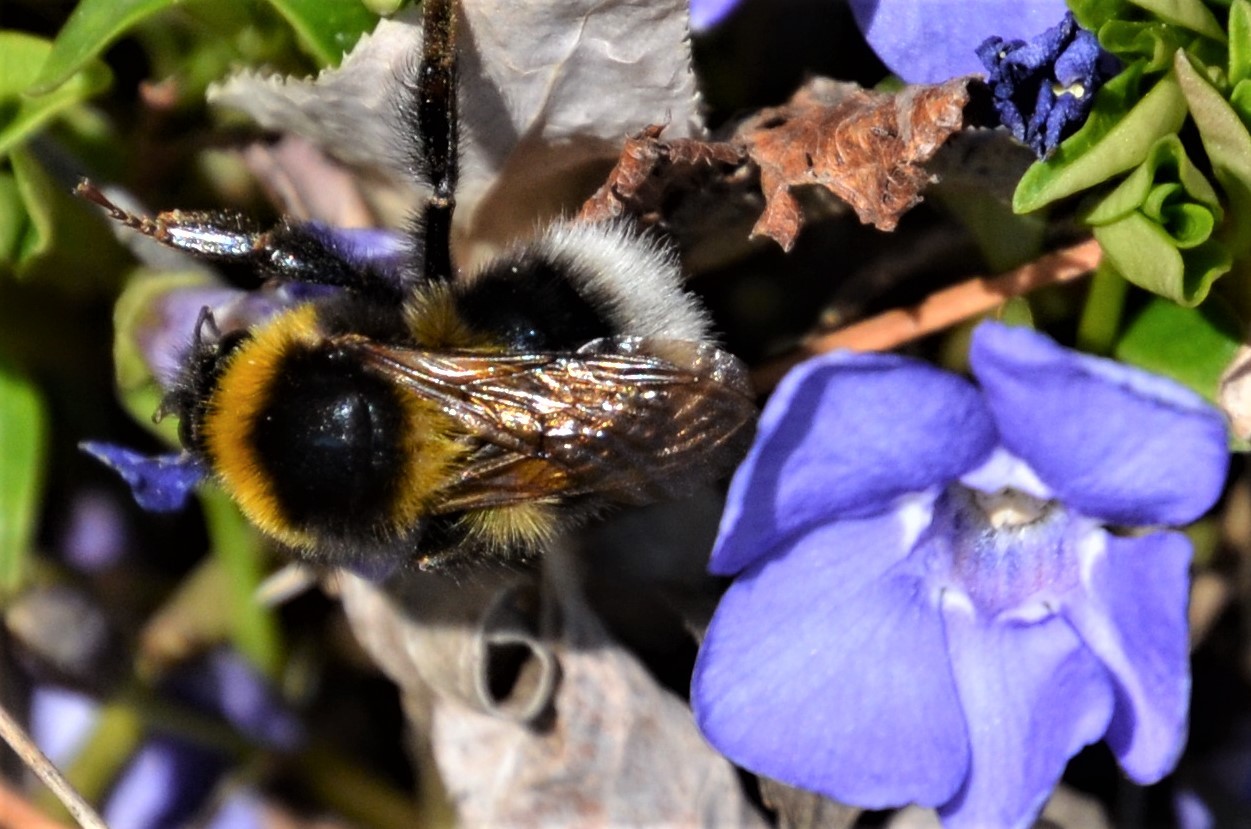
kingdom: Animalia
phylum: Arthropoda
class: Insecta
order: Hymenoptera
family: Apidae
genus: Bombus
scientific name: Bombus hortorum
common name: Garden bumblebee
